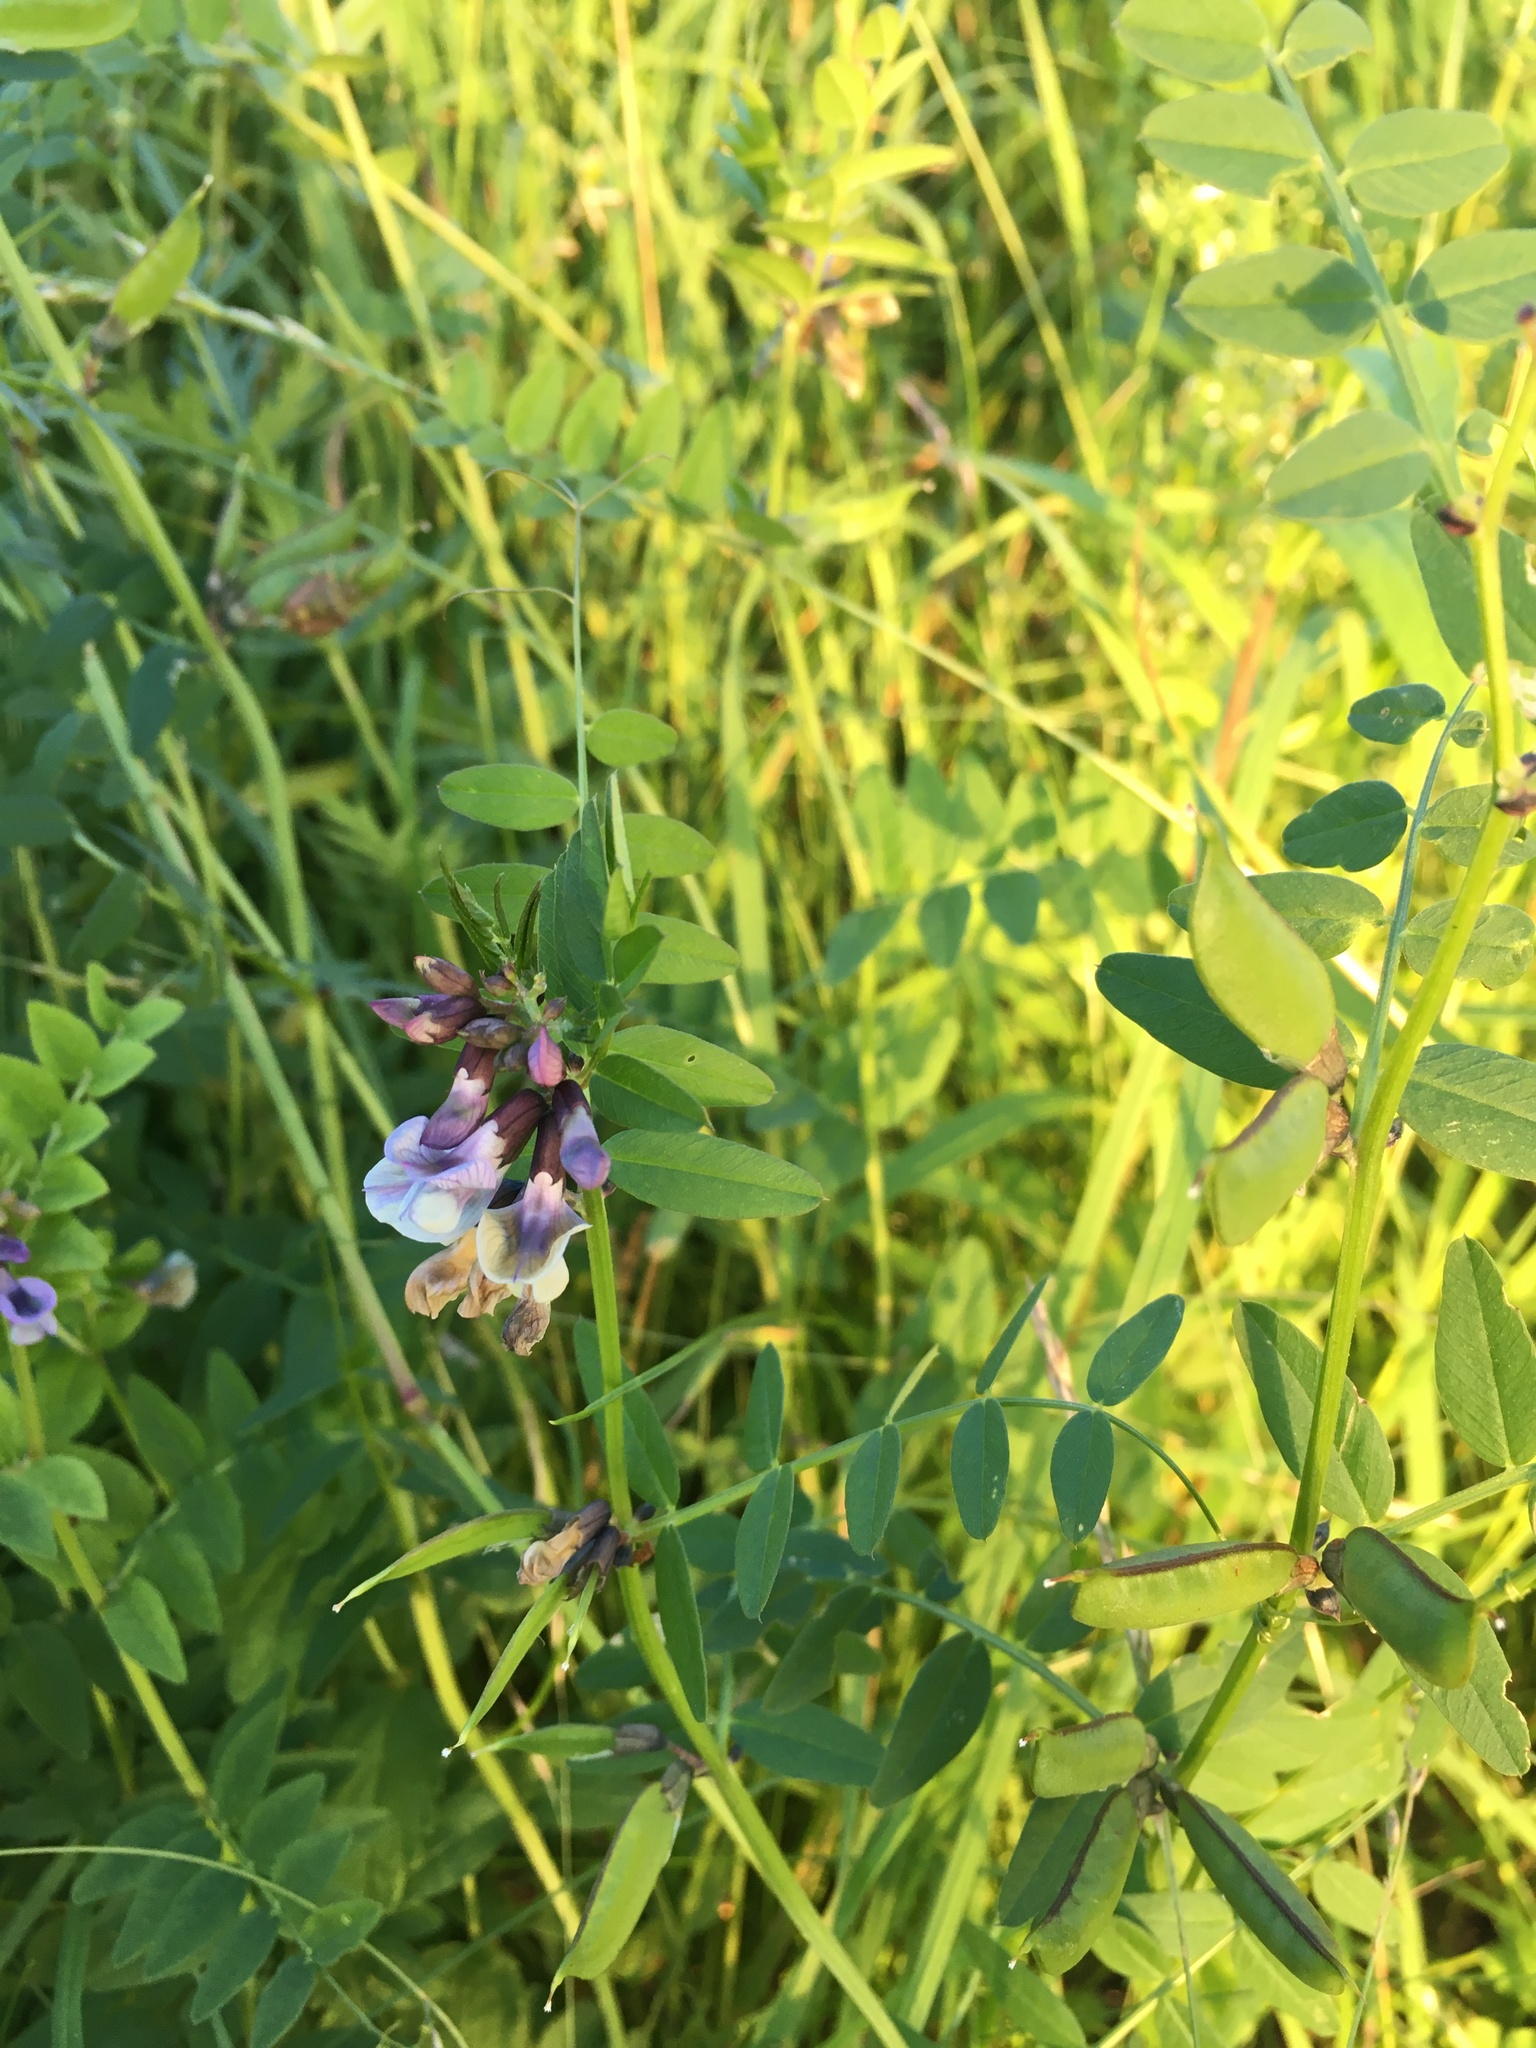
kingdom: Plantae
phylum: Tracheophyta
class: Magnoliopsida
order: Fabales
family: Fabaceae
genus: Vicia
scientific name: Vicia sepium
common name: Bush vetch
